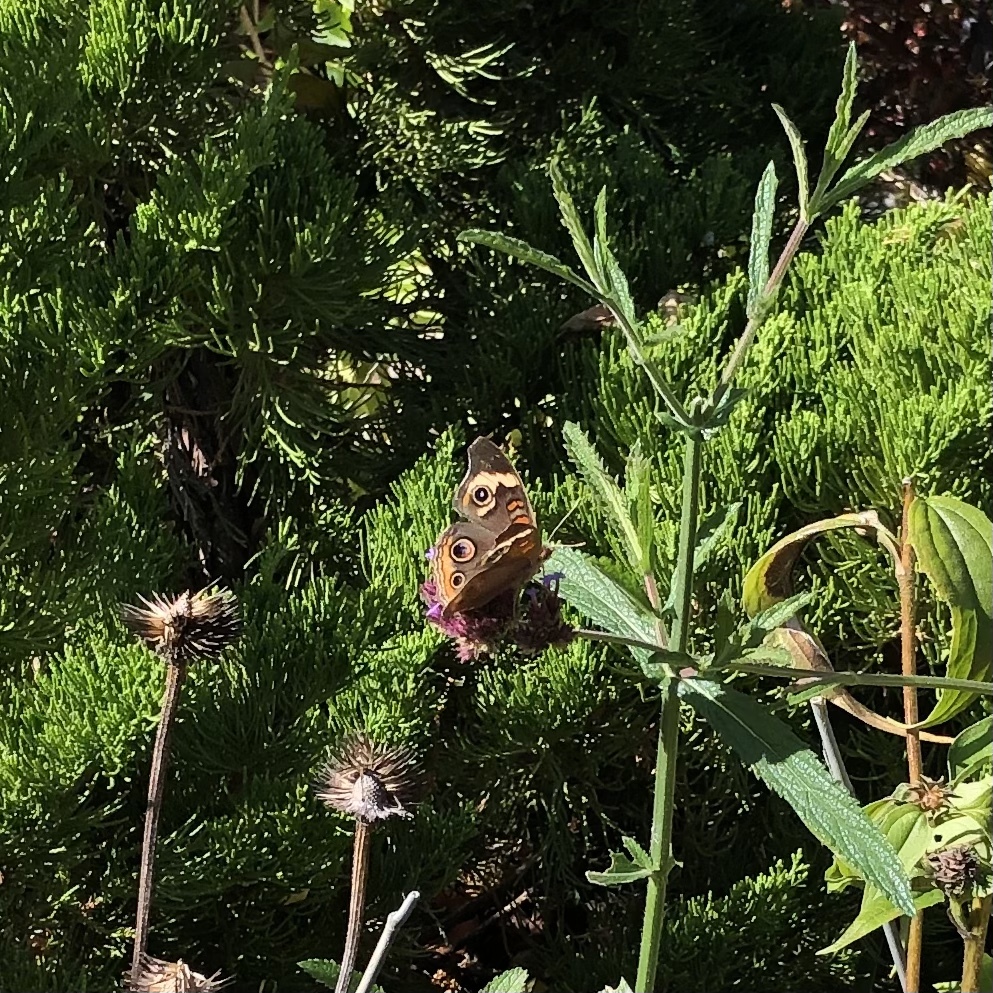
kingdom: Animalia
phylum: Arthropoda
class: Insecta
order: Lepidoptera
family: Nymphalidae
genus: Junonia
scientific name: Junonia coenia
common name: Common buckeye
